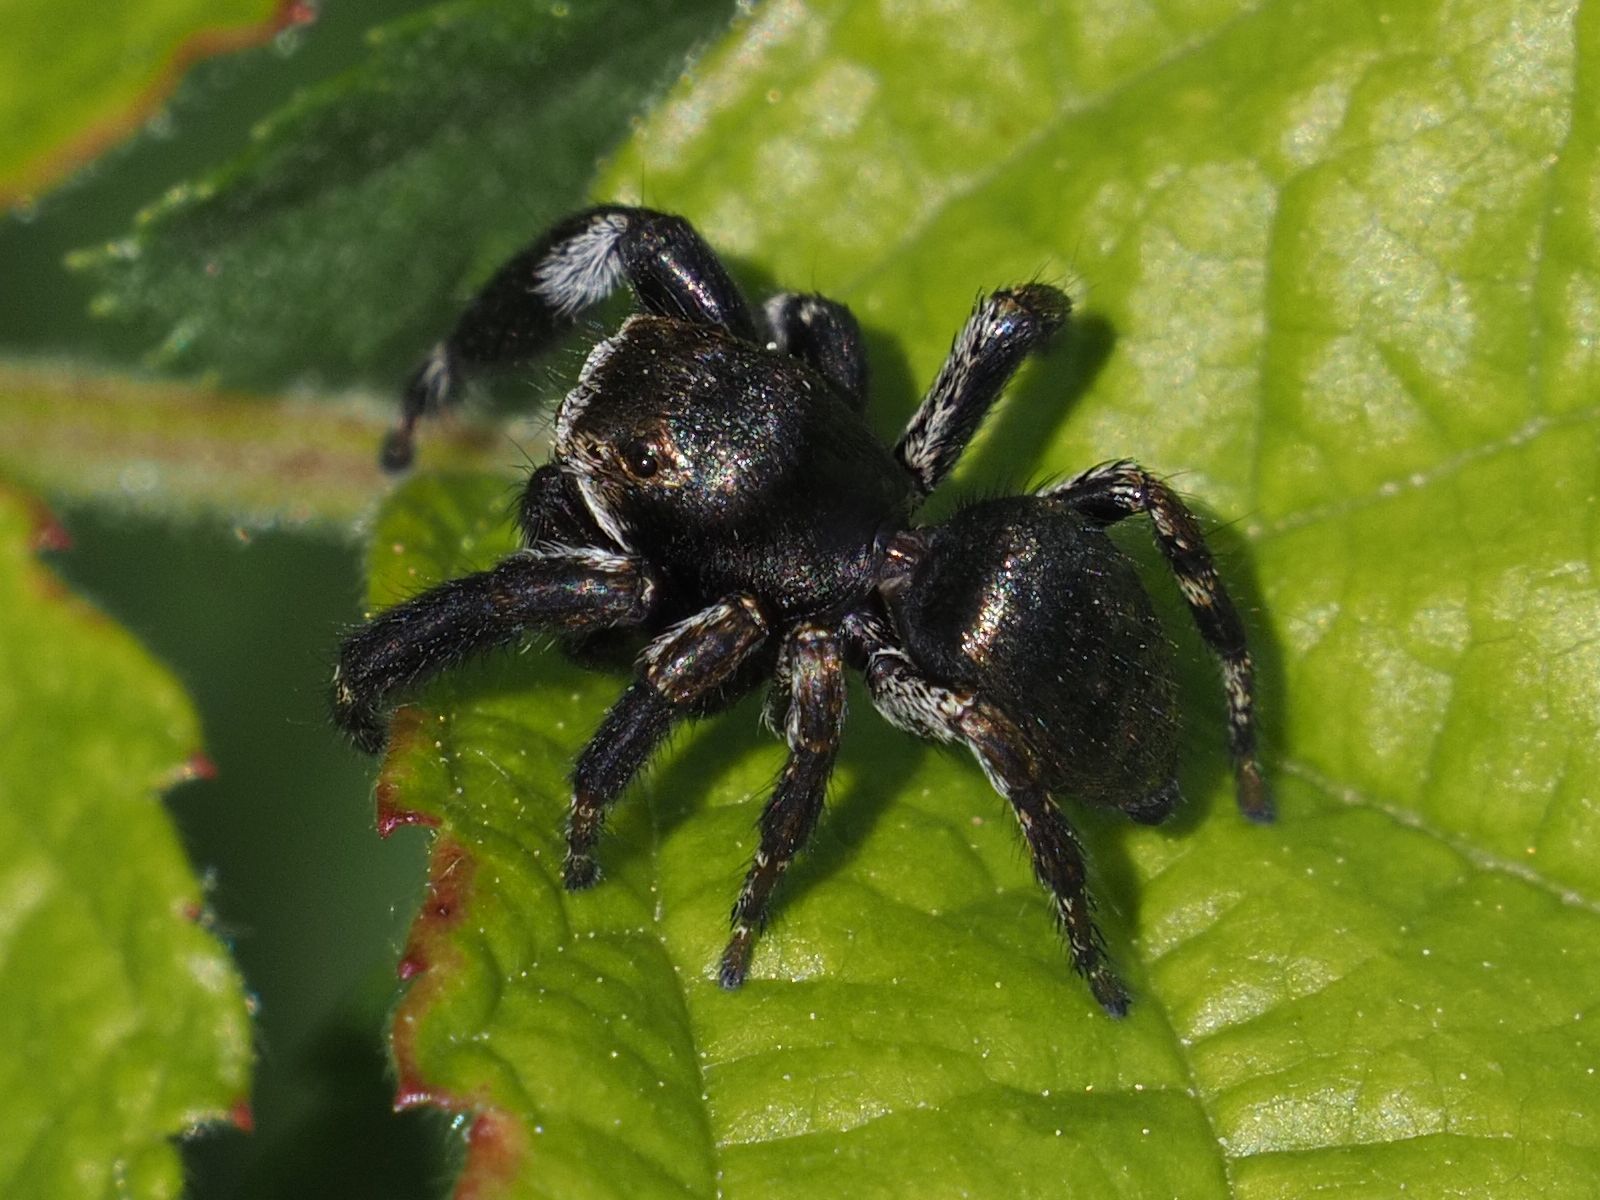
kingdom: Animalia
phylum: Arthropoda
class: Arachnida
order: Araneae
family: Salticidae
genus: Evarcha
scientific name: Evarcha arcuata
